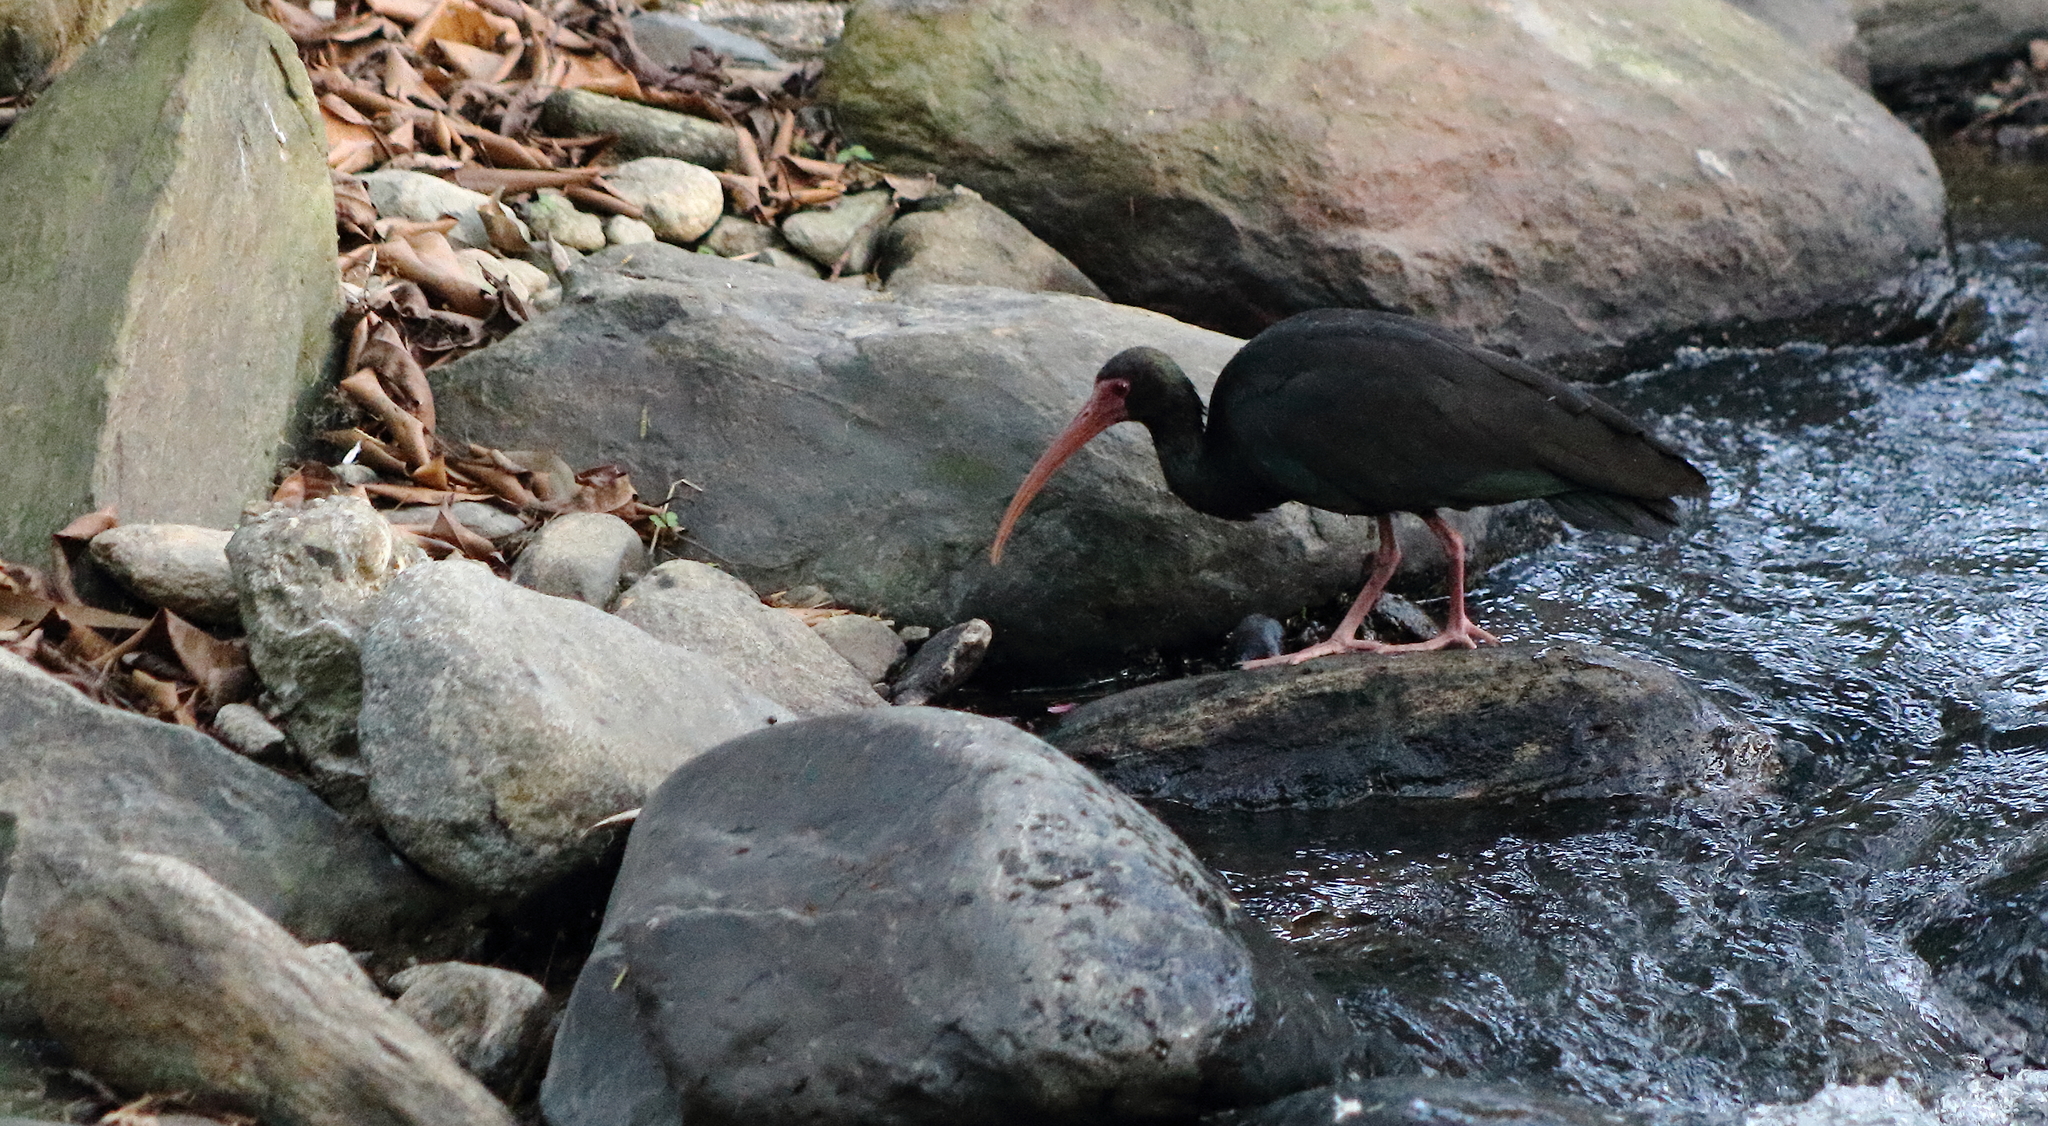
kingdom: Animalia
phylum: Chordata
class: Aves
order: Pelecaniformes
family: Threskiornithidae
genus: Phimosus
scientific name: Phimosus infuscatus
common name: Bare-faced ibis
